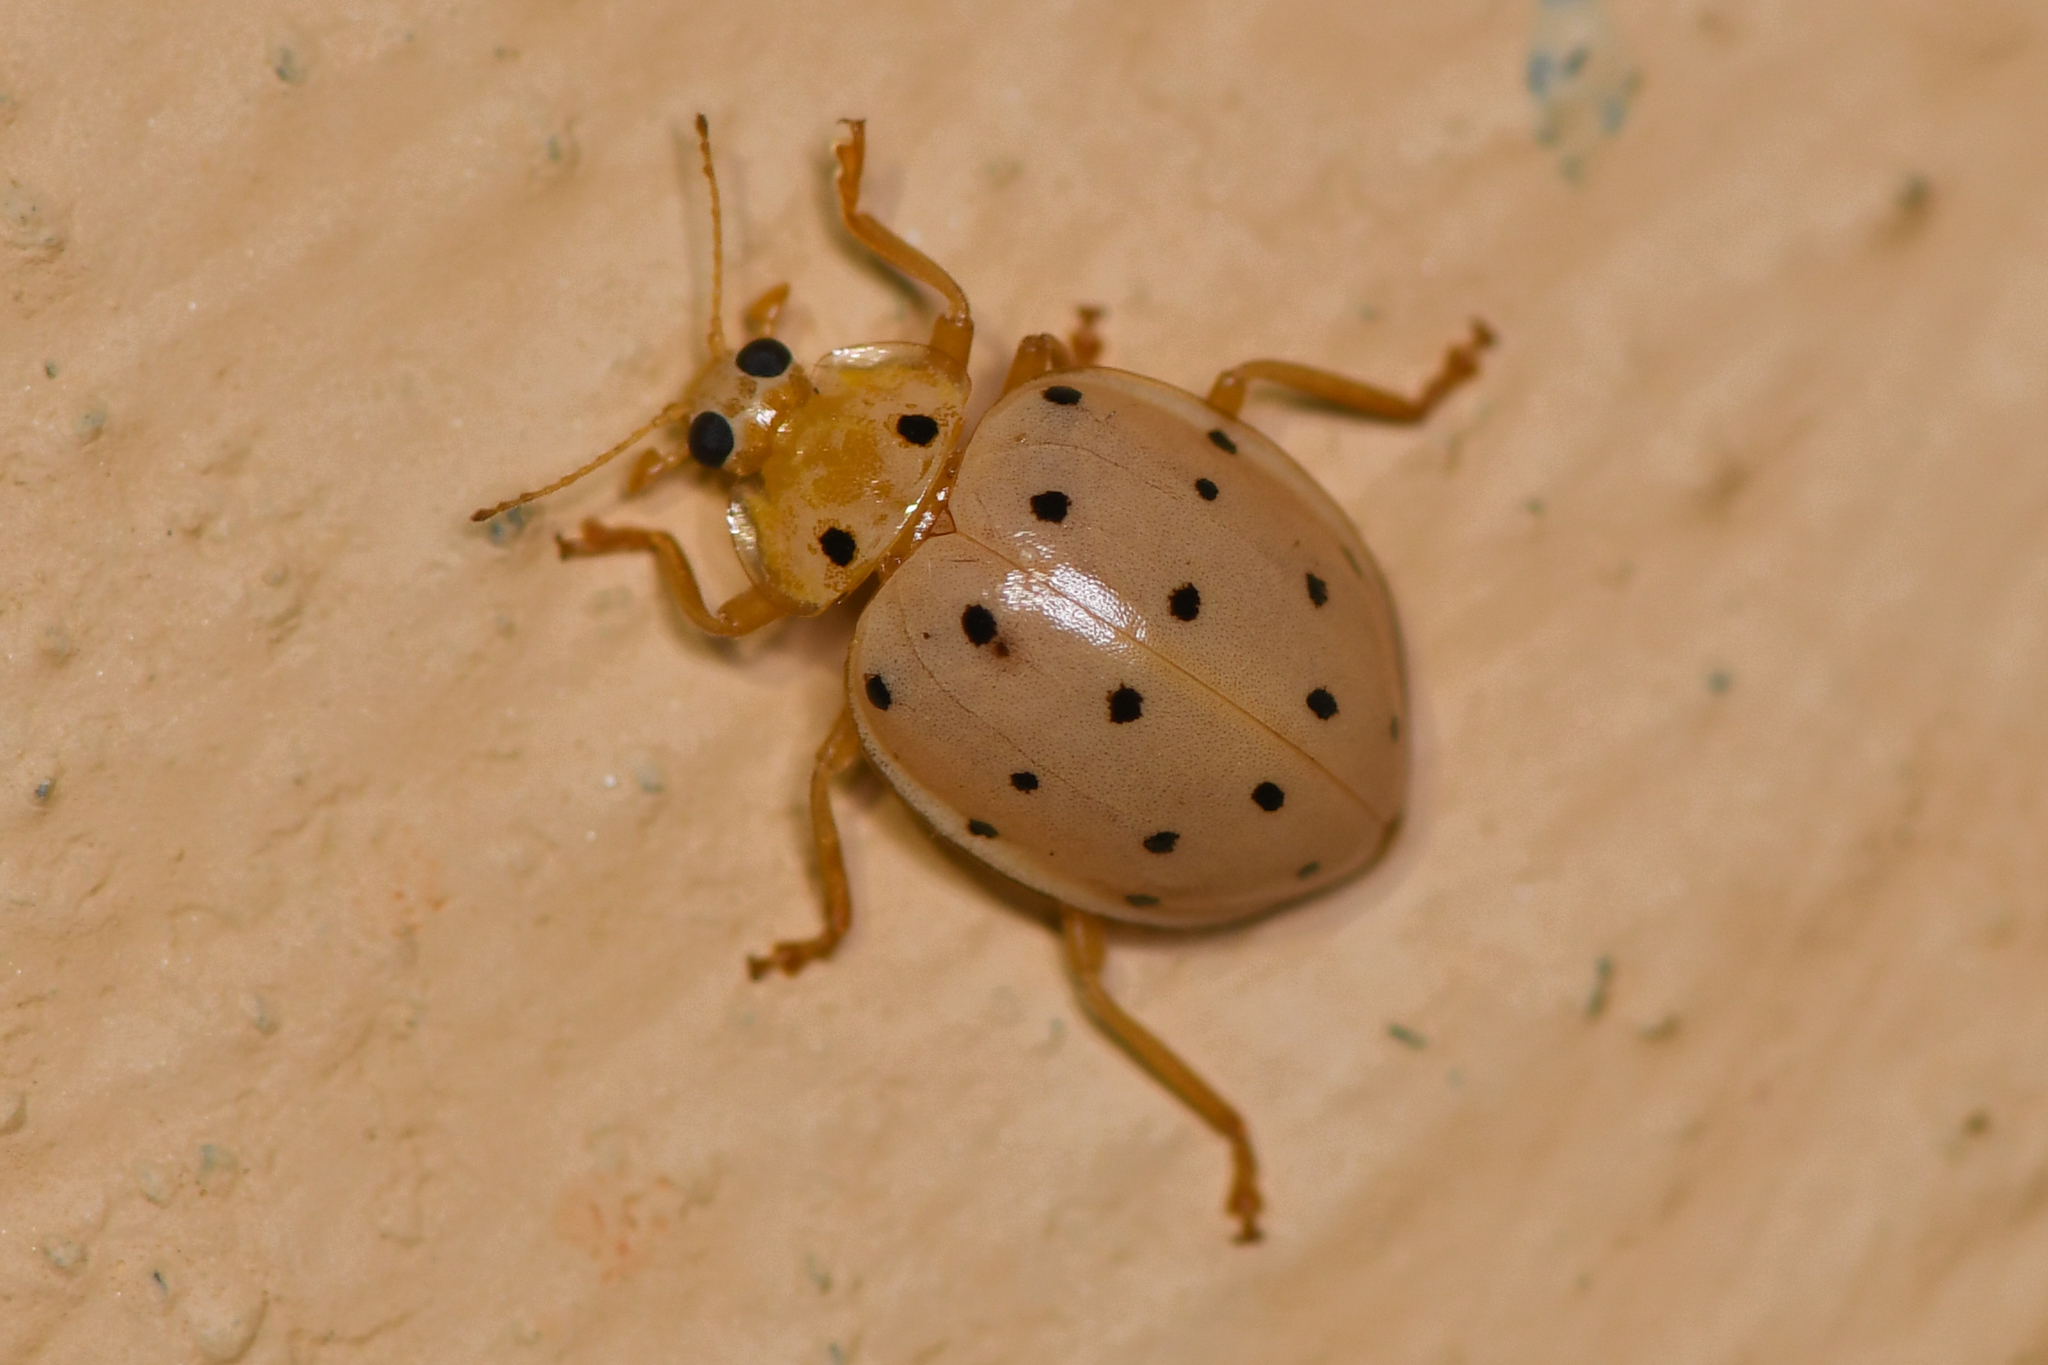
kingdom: Animalia
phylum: Arthropoda
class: Insecta
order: Coleoptera
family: Coccinellidae
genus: Neohalyzia
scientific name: Neohalyzia
